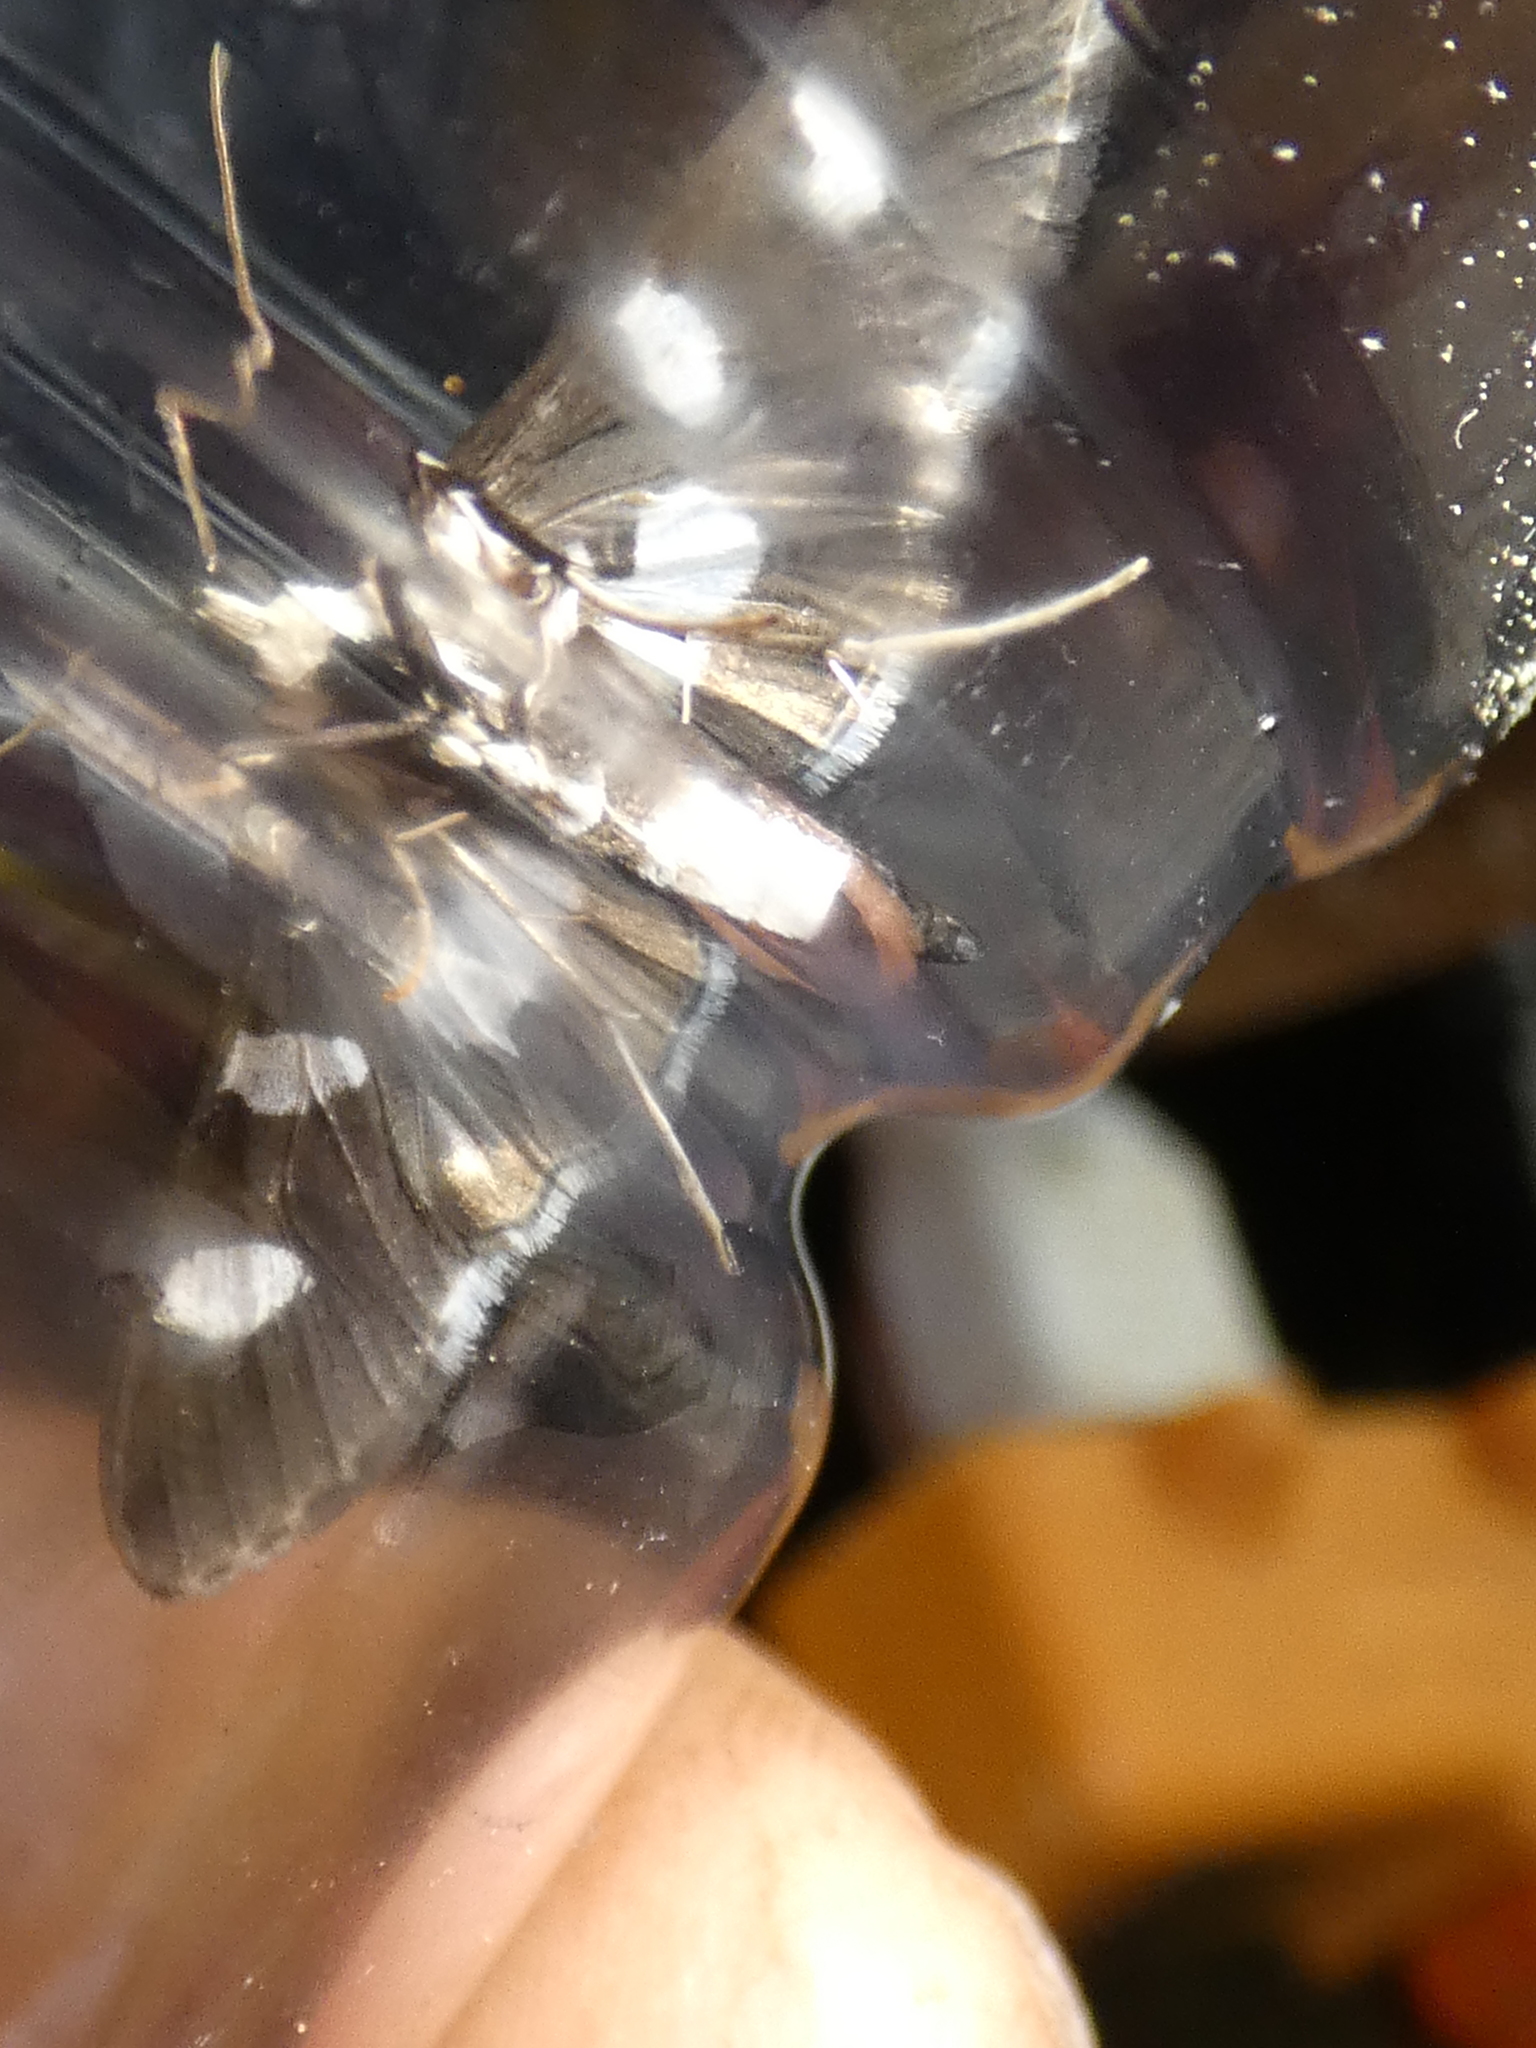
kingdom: Animalia
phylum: Arthropoda
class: Insecta
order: Lepidoptera
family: Crambidae
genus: Desmia
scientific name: Desmia funeralis
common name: Grape leaf folder moth
